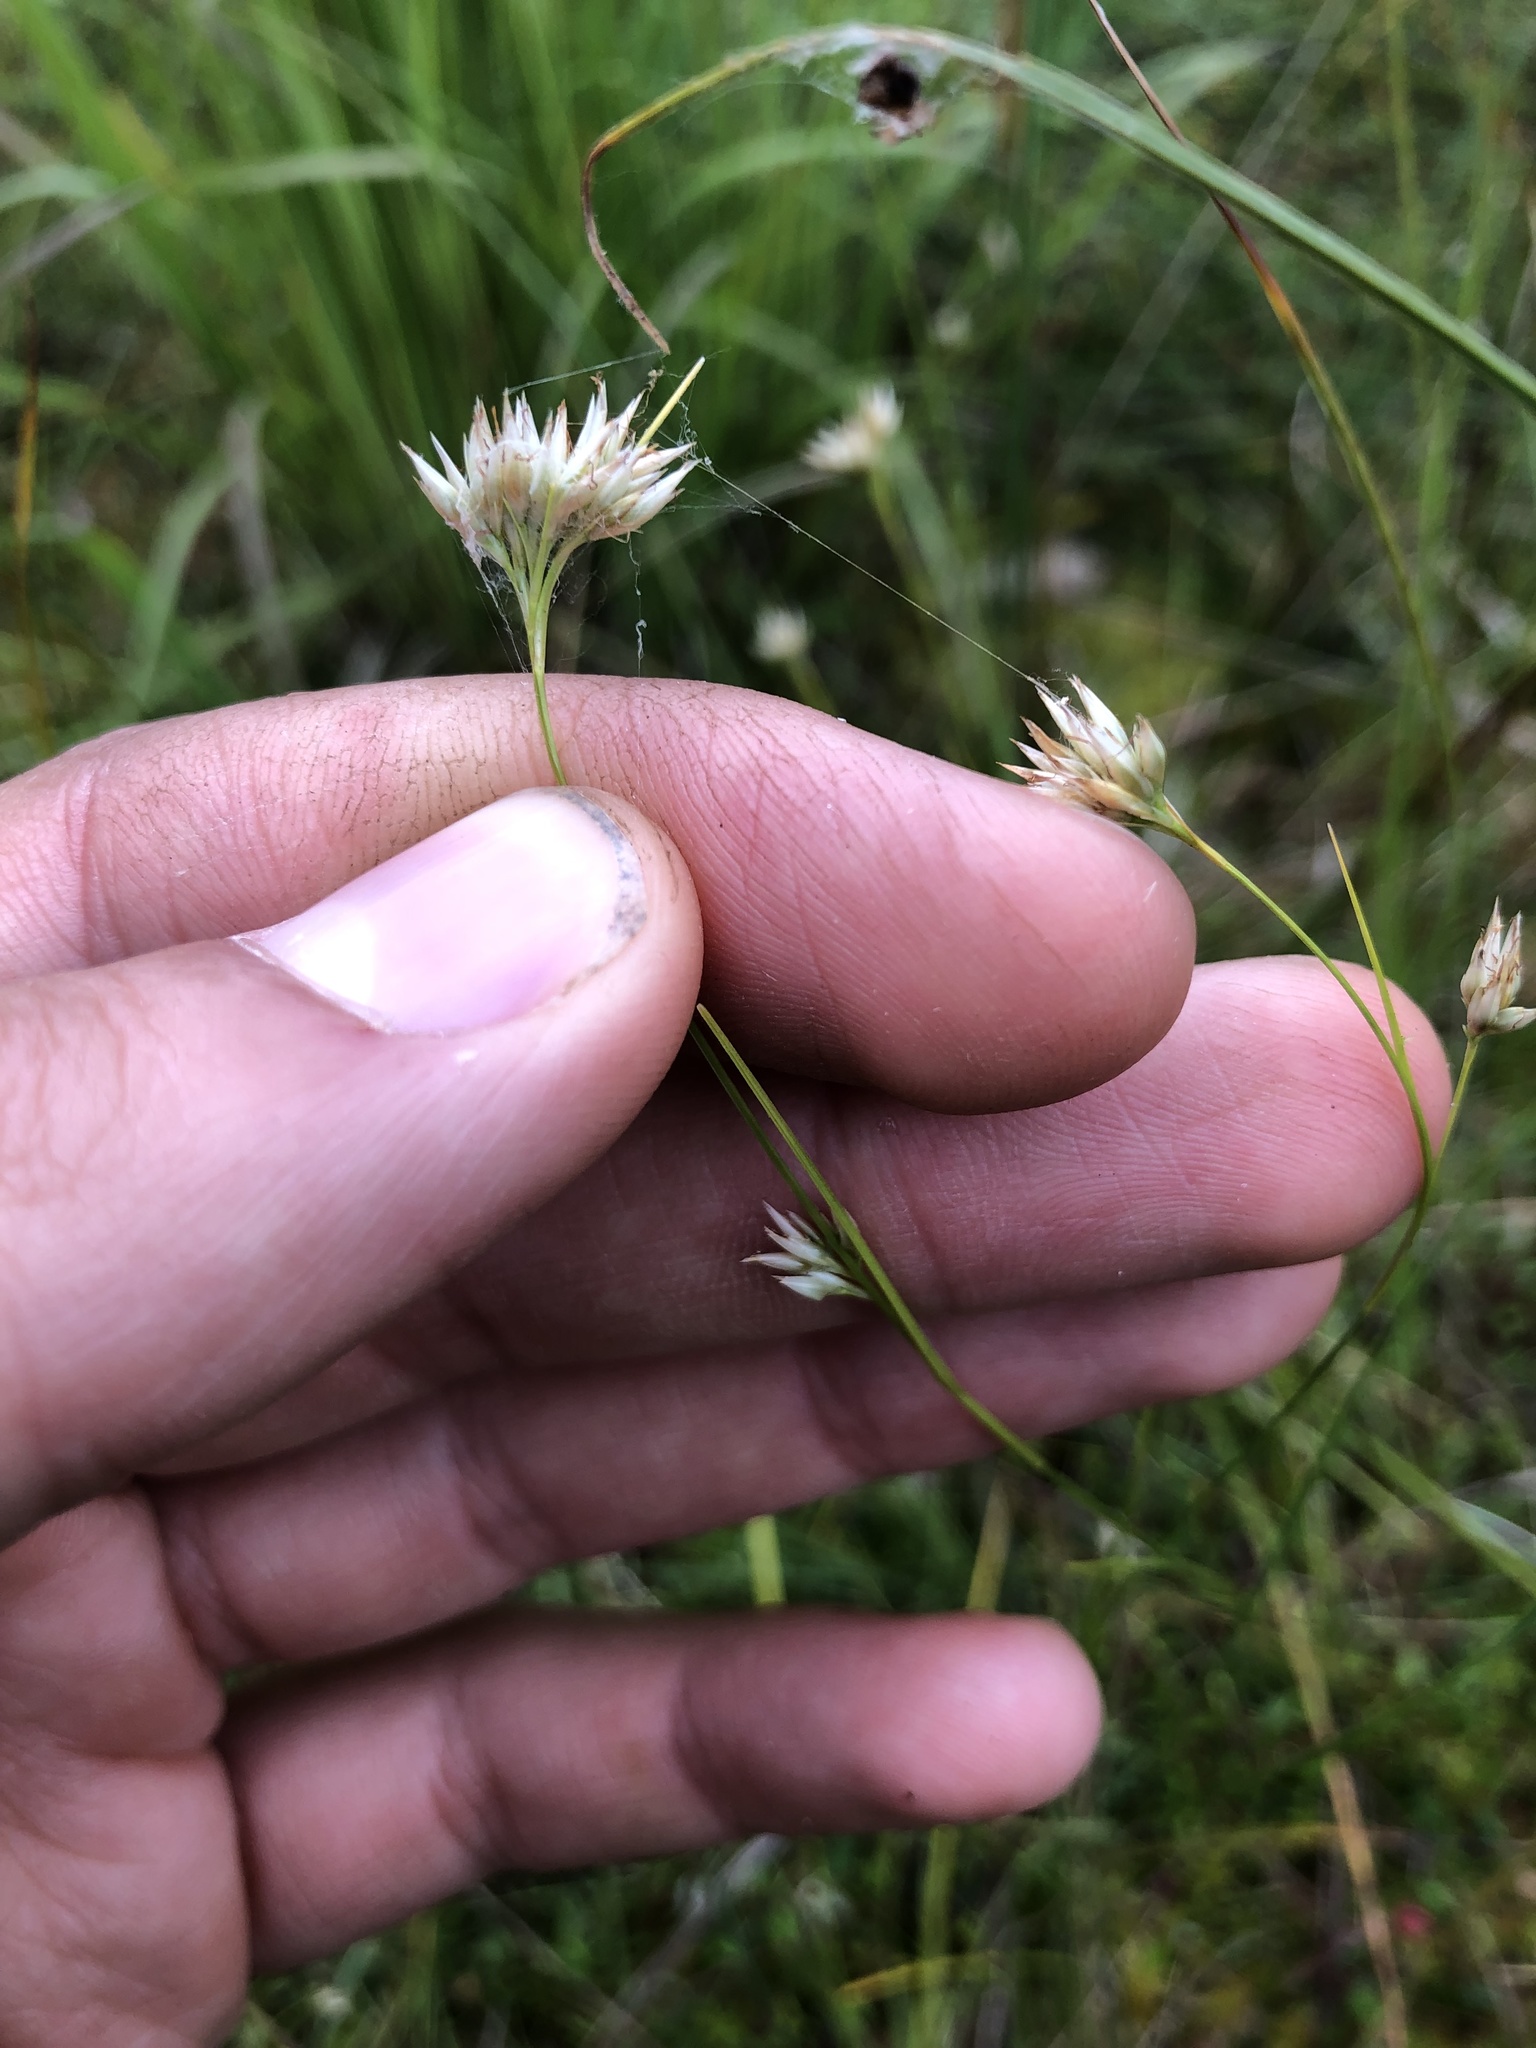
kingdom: Plantae
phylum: Tracheophyta
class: Liliopsida
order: Poales
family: Cyperaceae
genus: Rhynchospora
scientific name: Rhynchospora alba
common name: White beak-sedge
